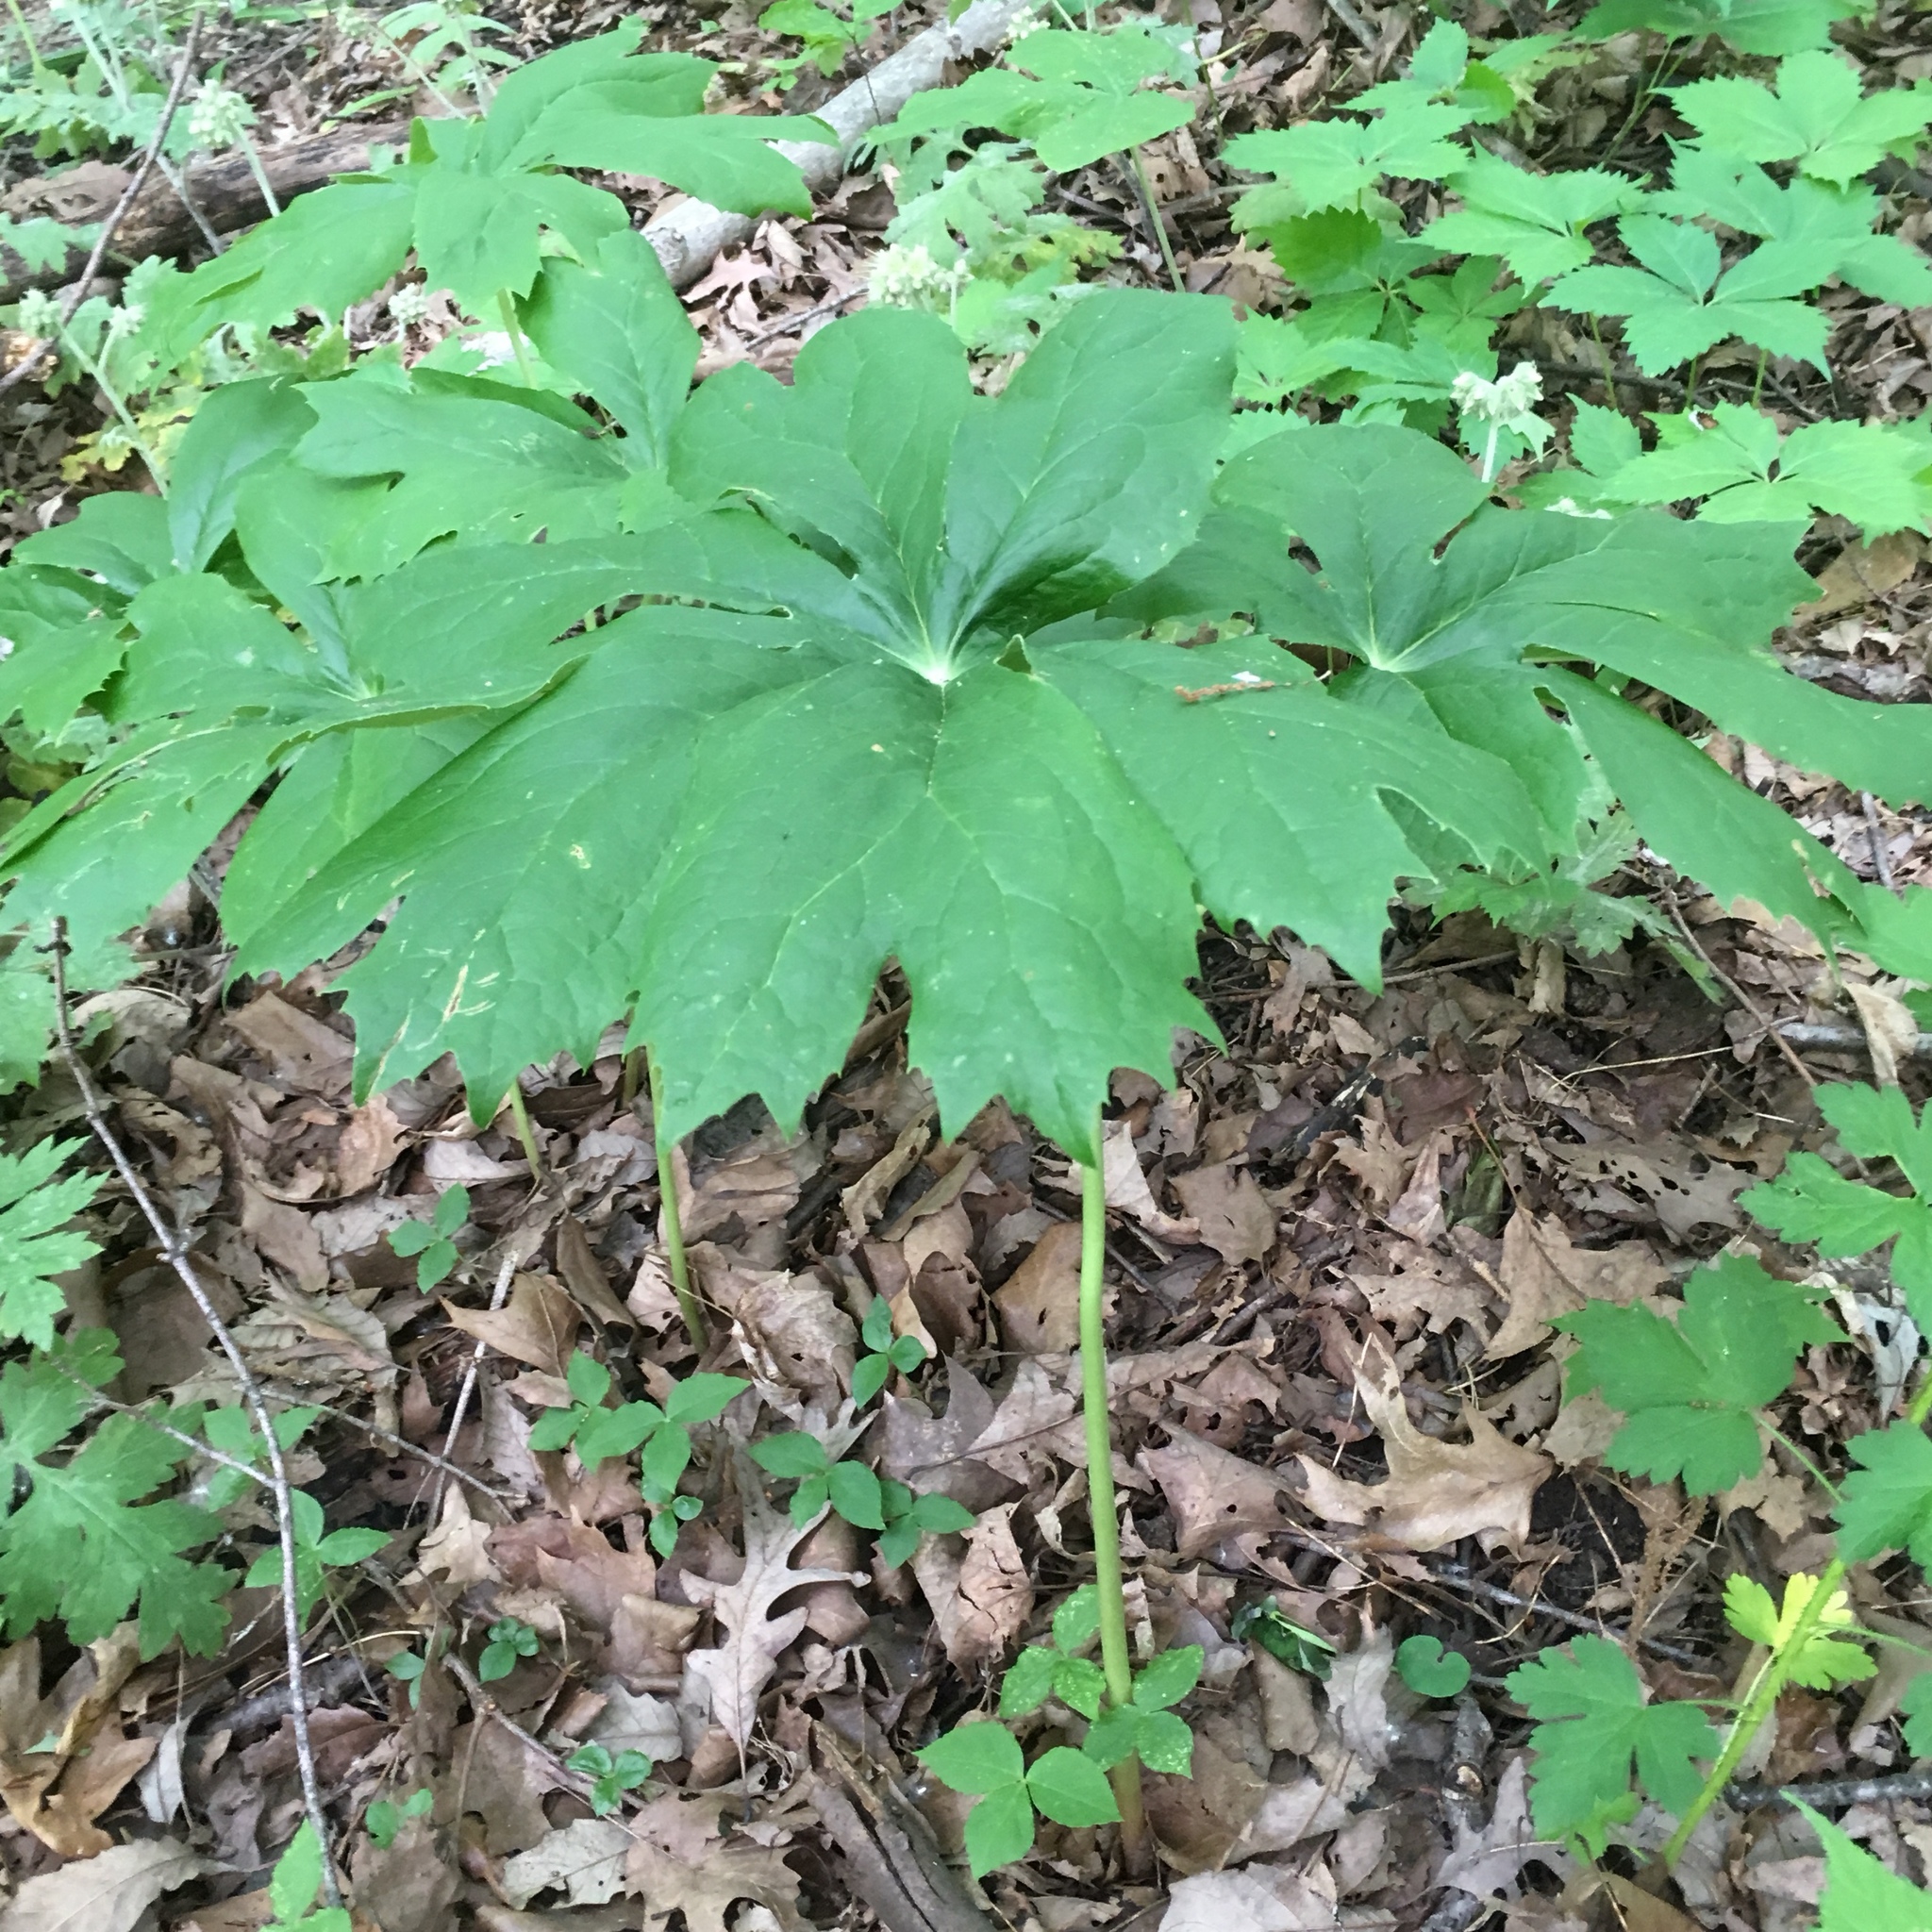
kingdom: Plantae
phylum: Tracheophyta
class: Magnoliopsida
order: Ranunculales
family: Berberidaceae
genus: Podophyllum
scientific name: Podophyllum peltatum
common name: Wild mandrake
